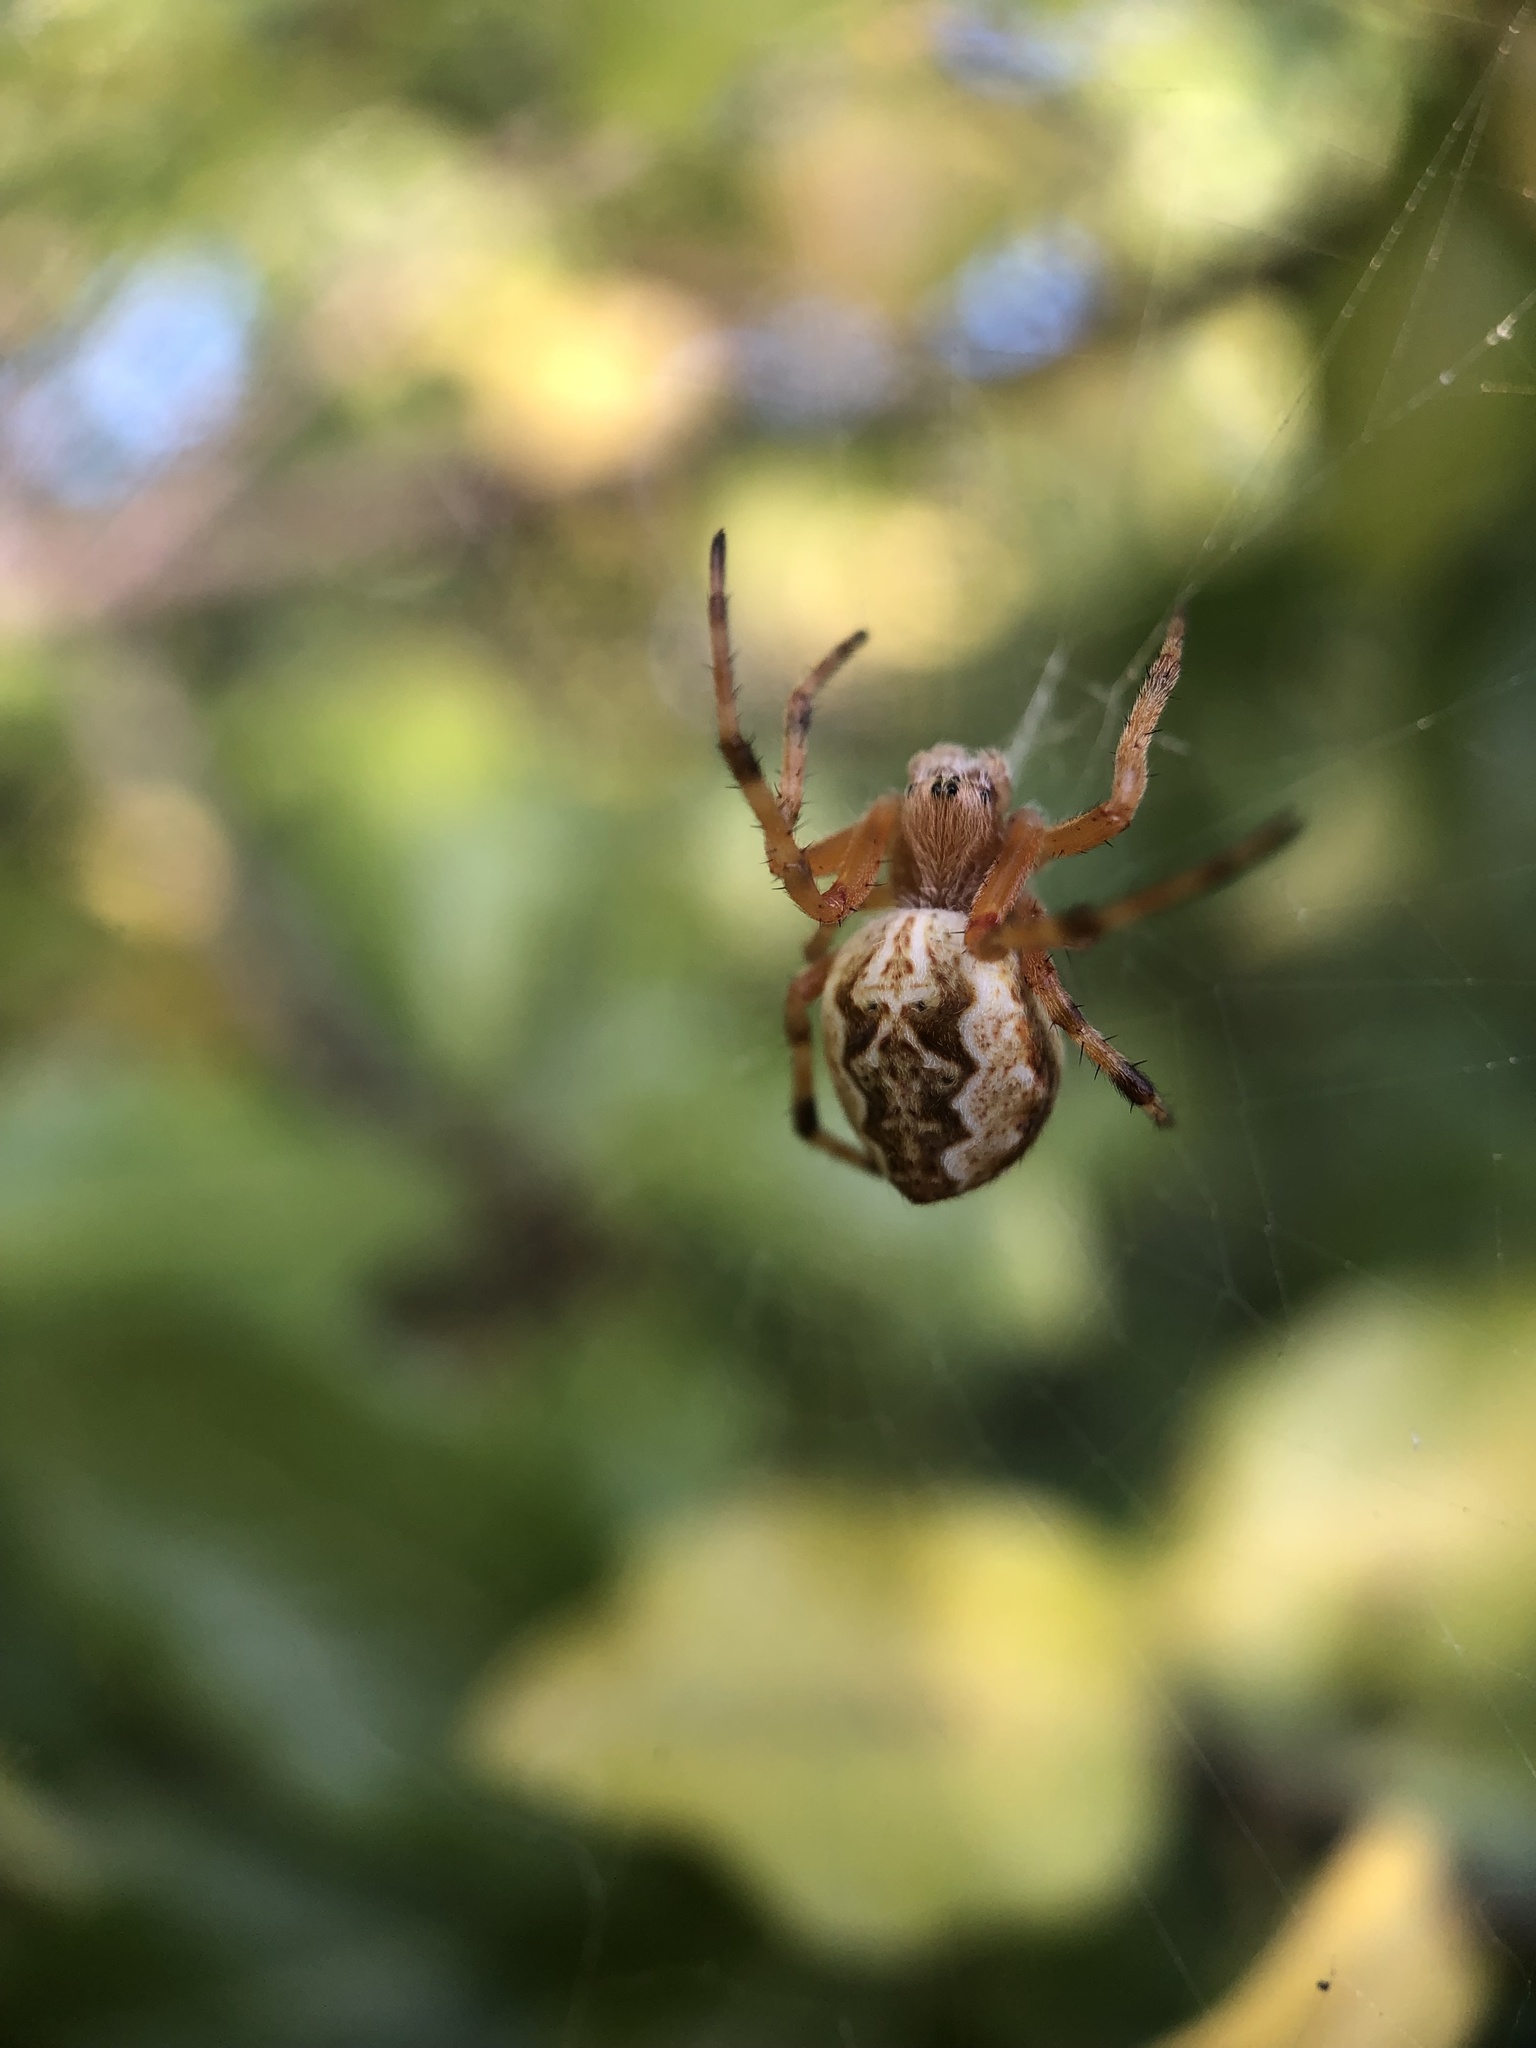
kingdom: Animalia
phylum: Arthropoda
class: Arachnida
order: Araneae
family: Araneidae
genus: Salsa
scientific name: Salsa fuliginata
